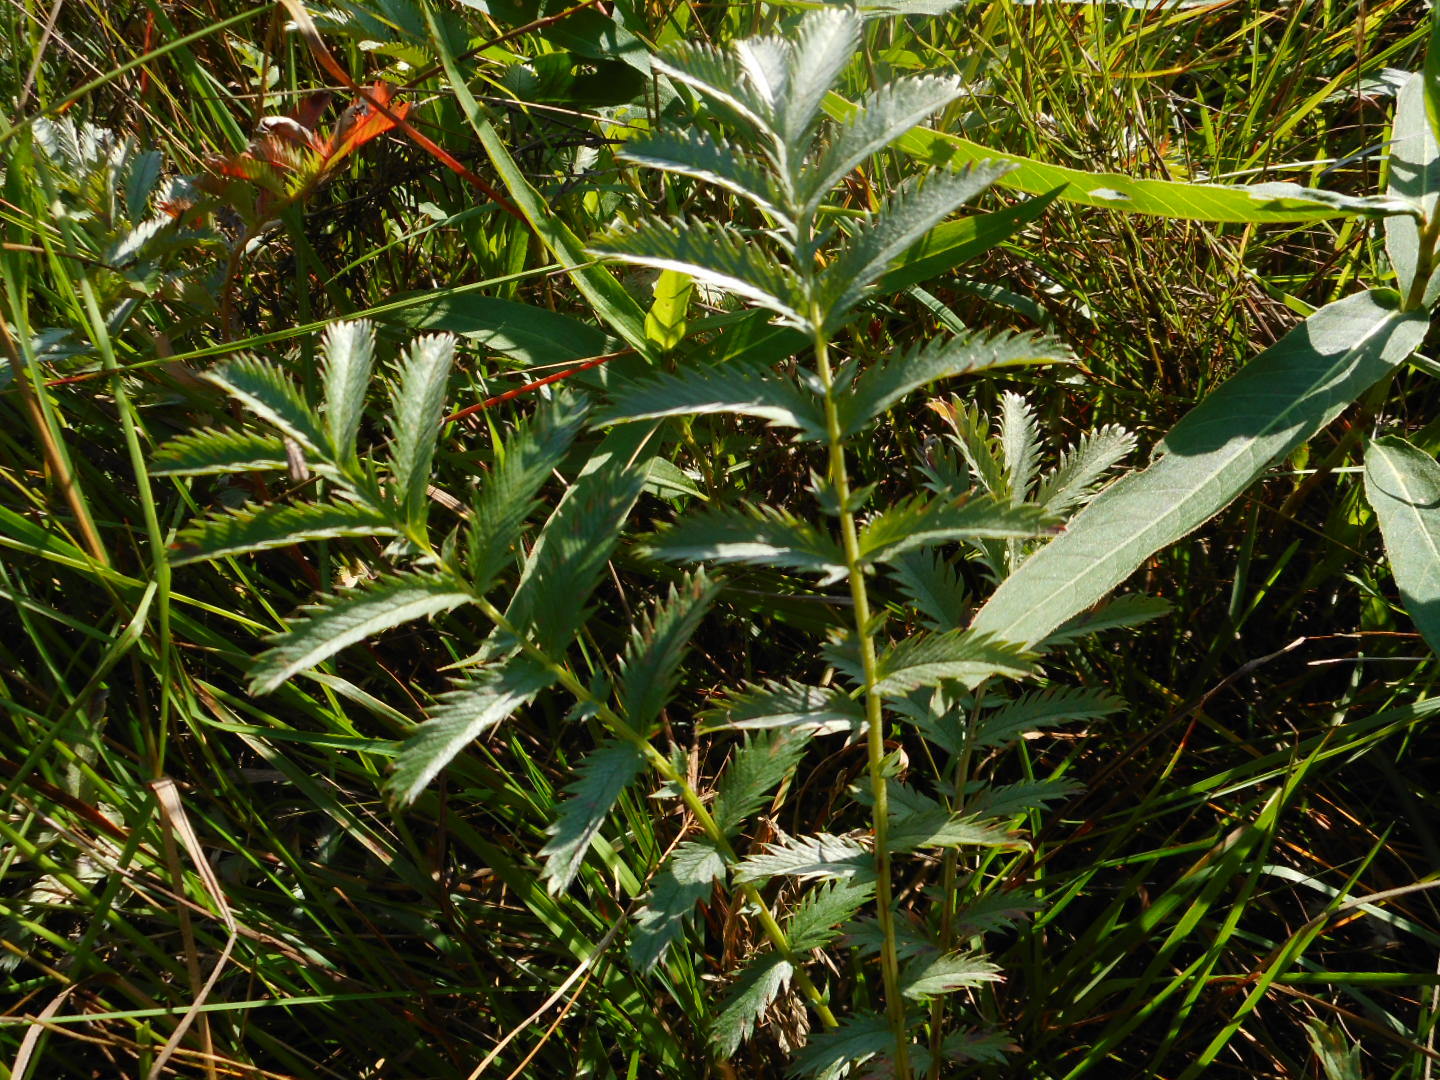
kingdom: Plantae
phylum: Tracheophyta
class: Magnoliopsida
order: Rosales
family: Rosaceae
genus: Argentina
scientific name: Argentina anserina
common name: Common silverweed
